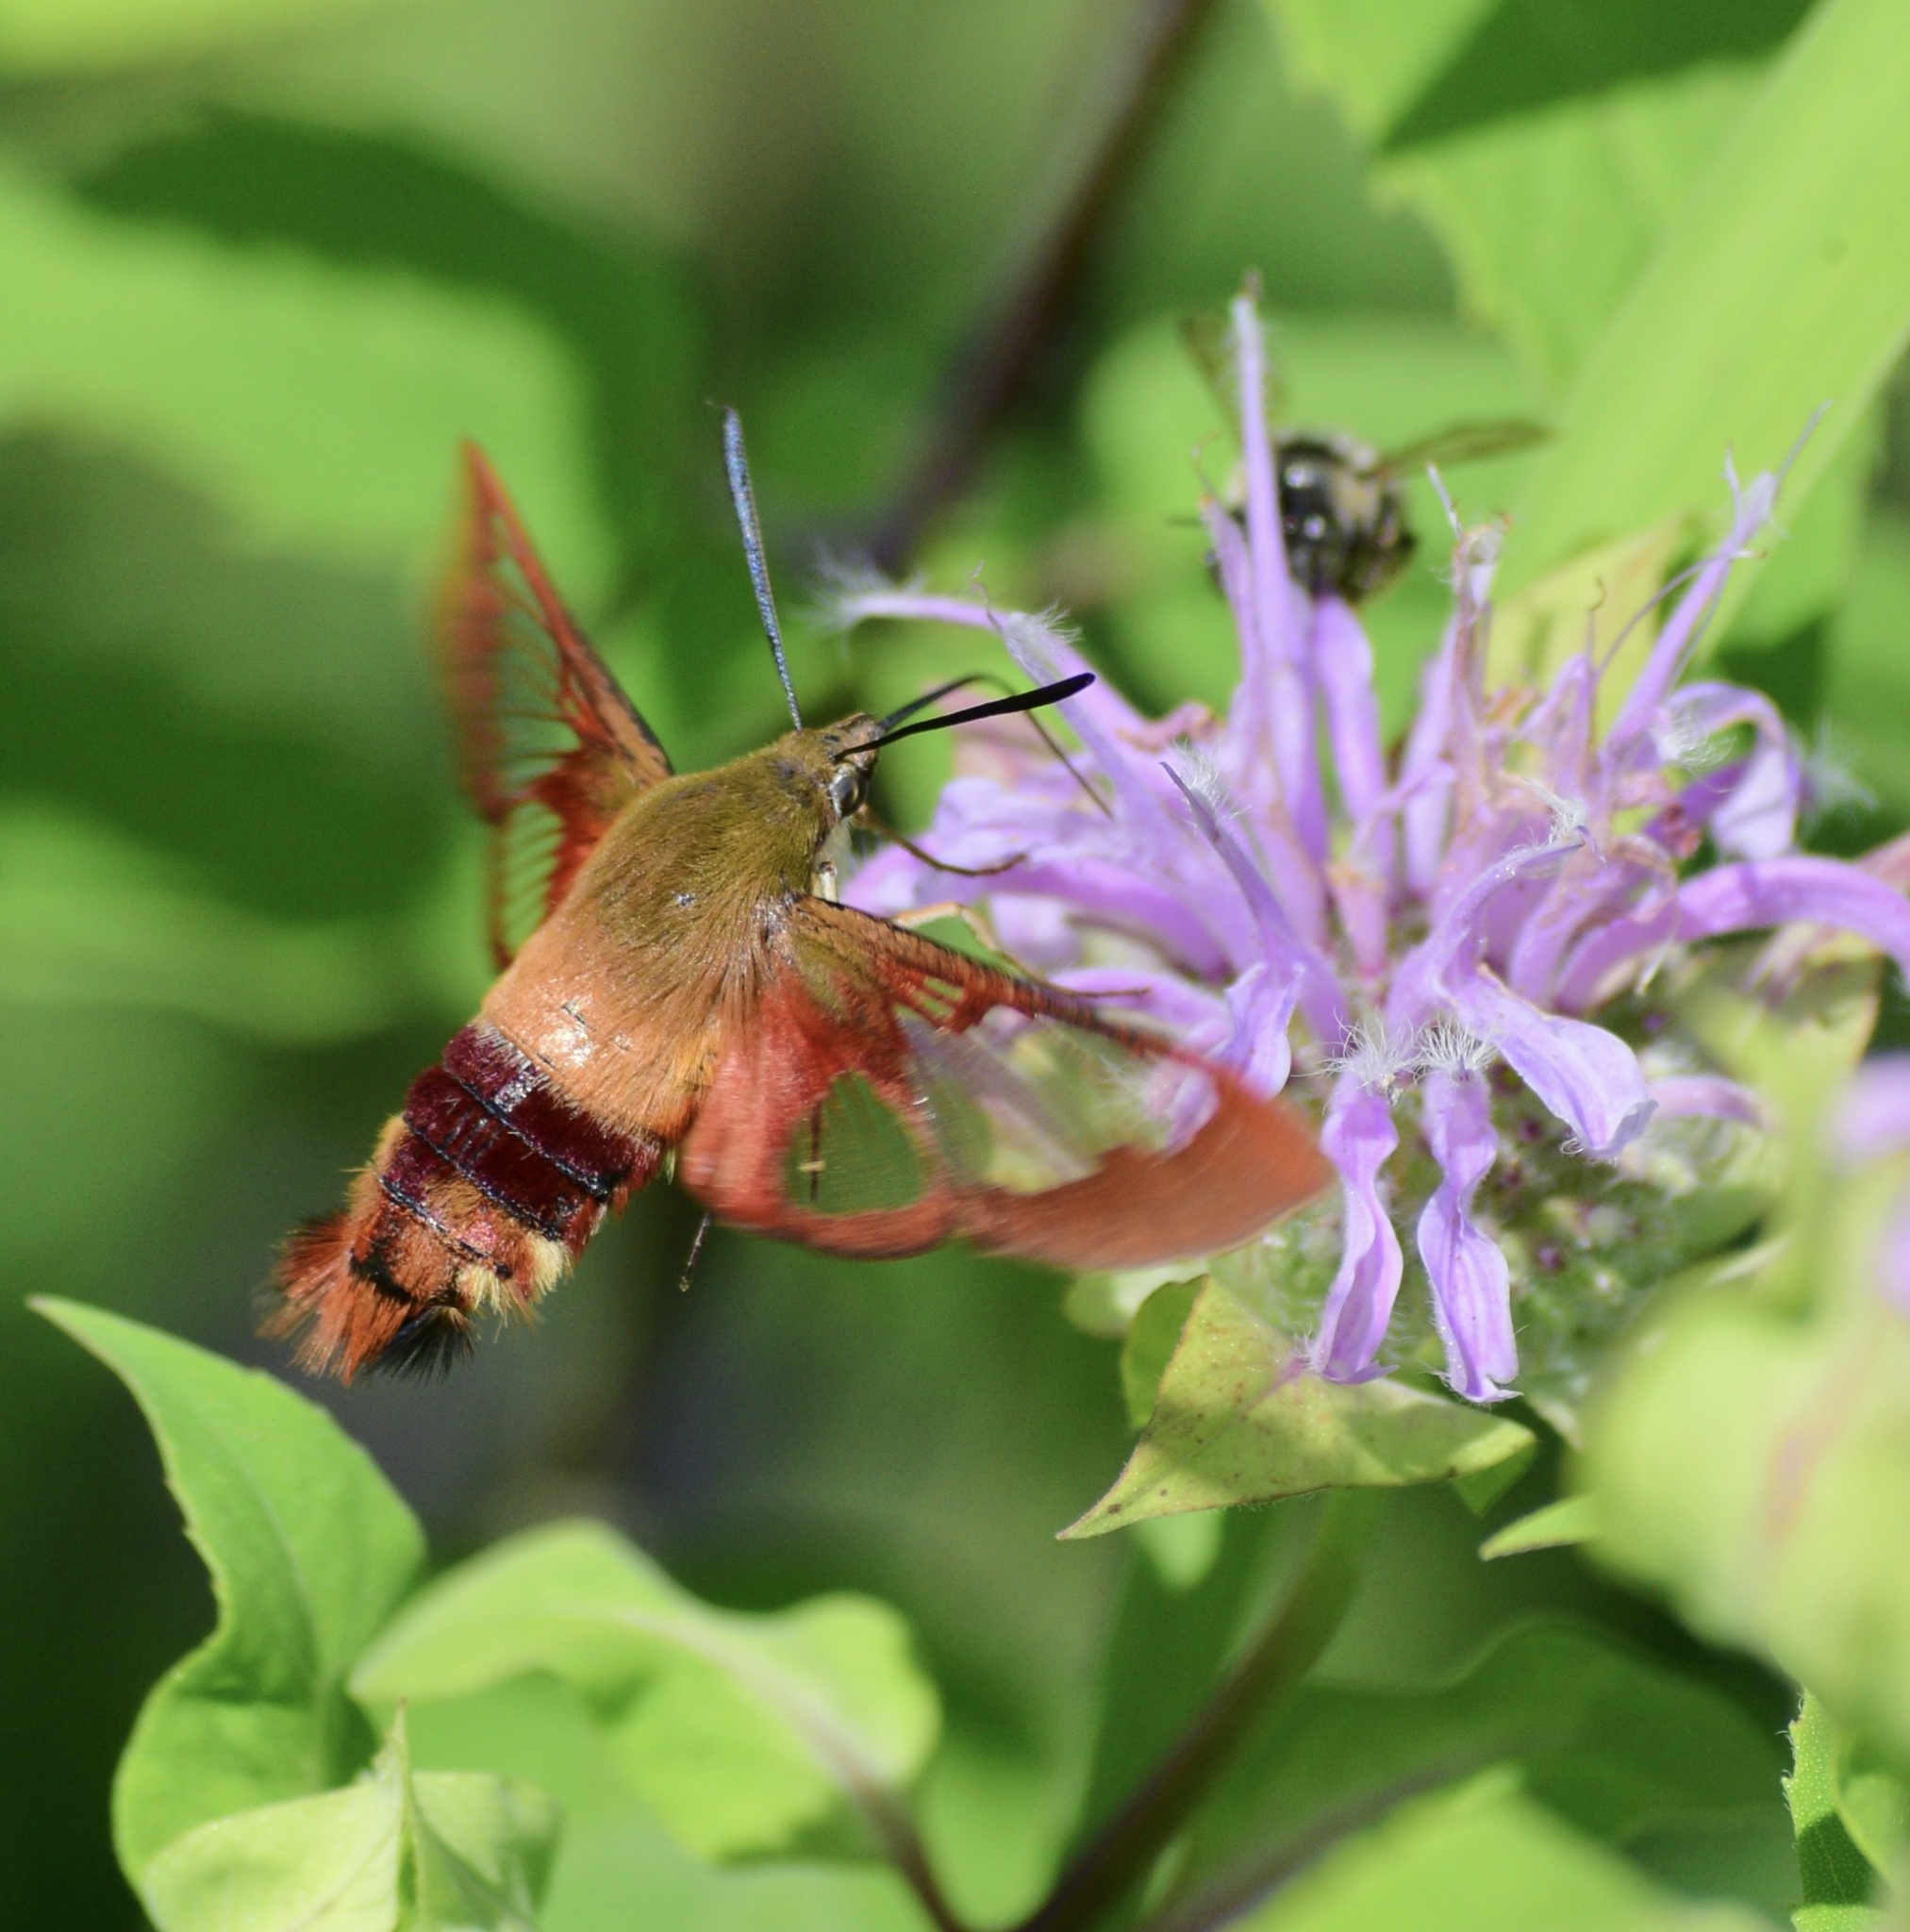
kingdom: Animalia
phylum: Arthropoda
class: Insecta
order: Lepidoptera
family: Sphingidae
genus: Hemaris
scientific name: Hemaris thysbe
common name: Common clear-wing
